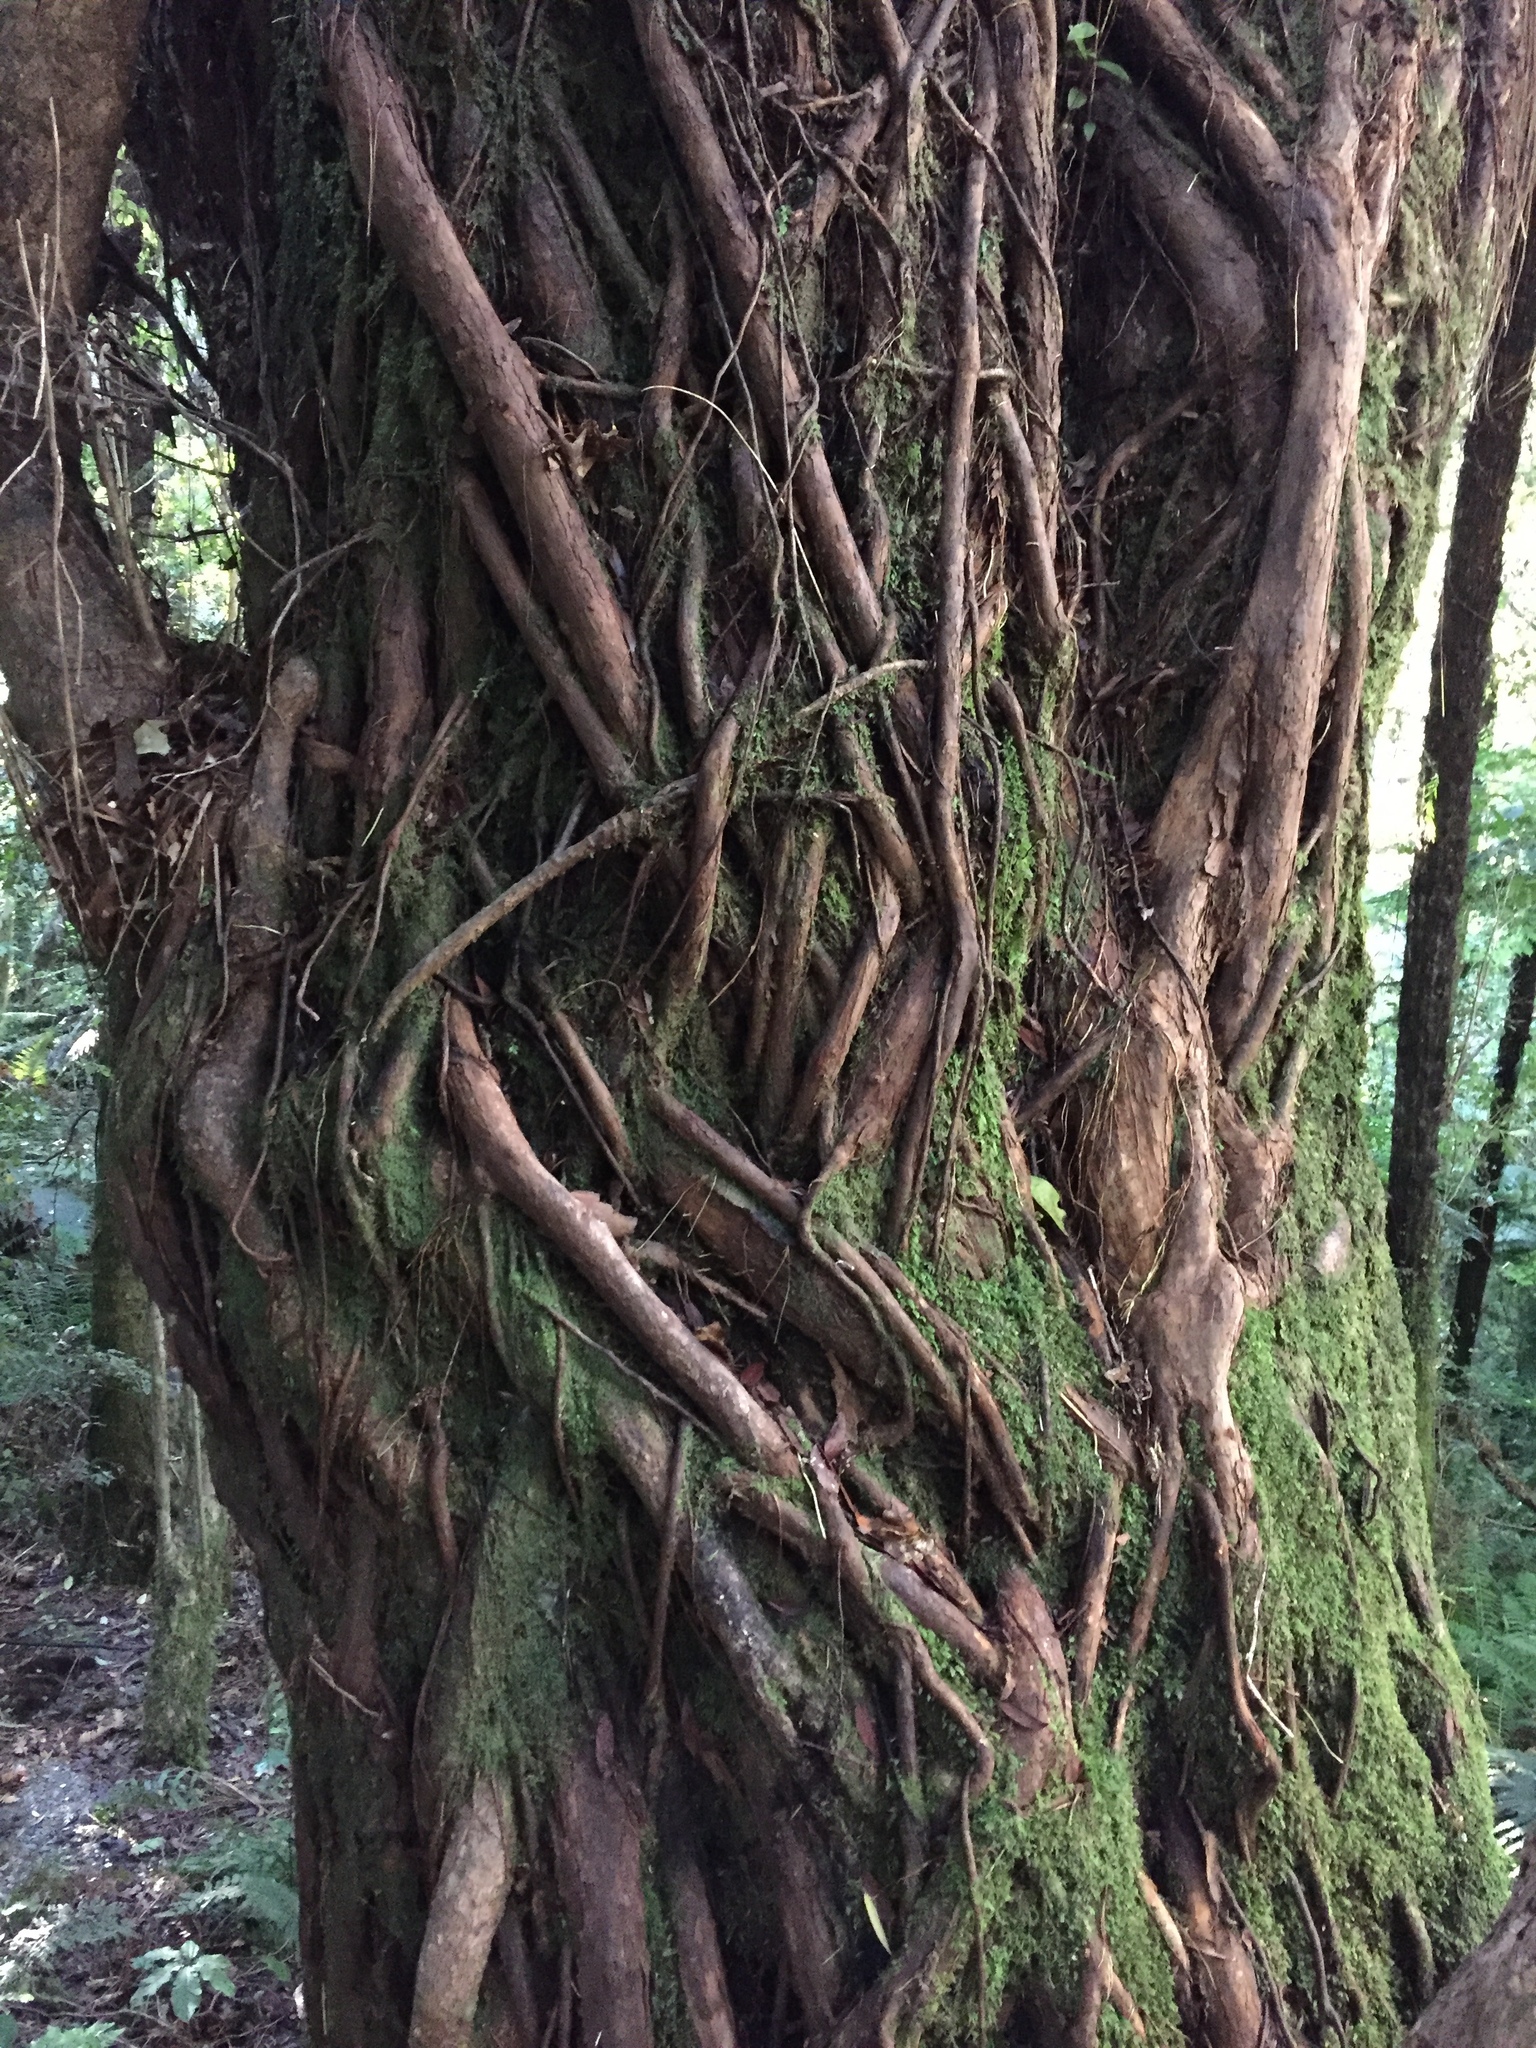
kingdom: Plantae
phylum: Tracheophyta
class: Magnoliopsida
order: Myrtales
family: Myrtaceae
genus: Metrosideros
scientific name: Metrosideros umbellata
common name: Southern rata
